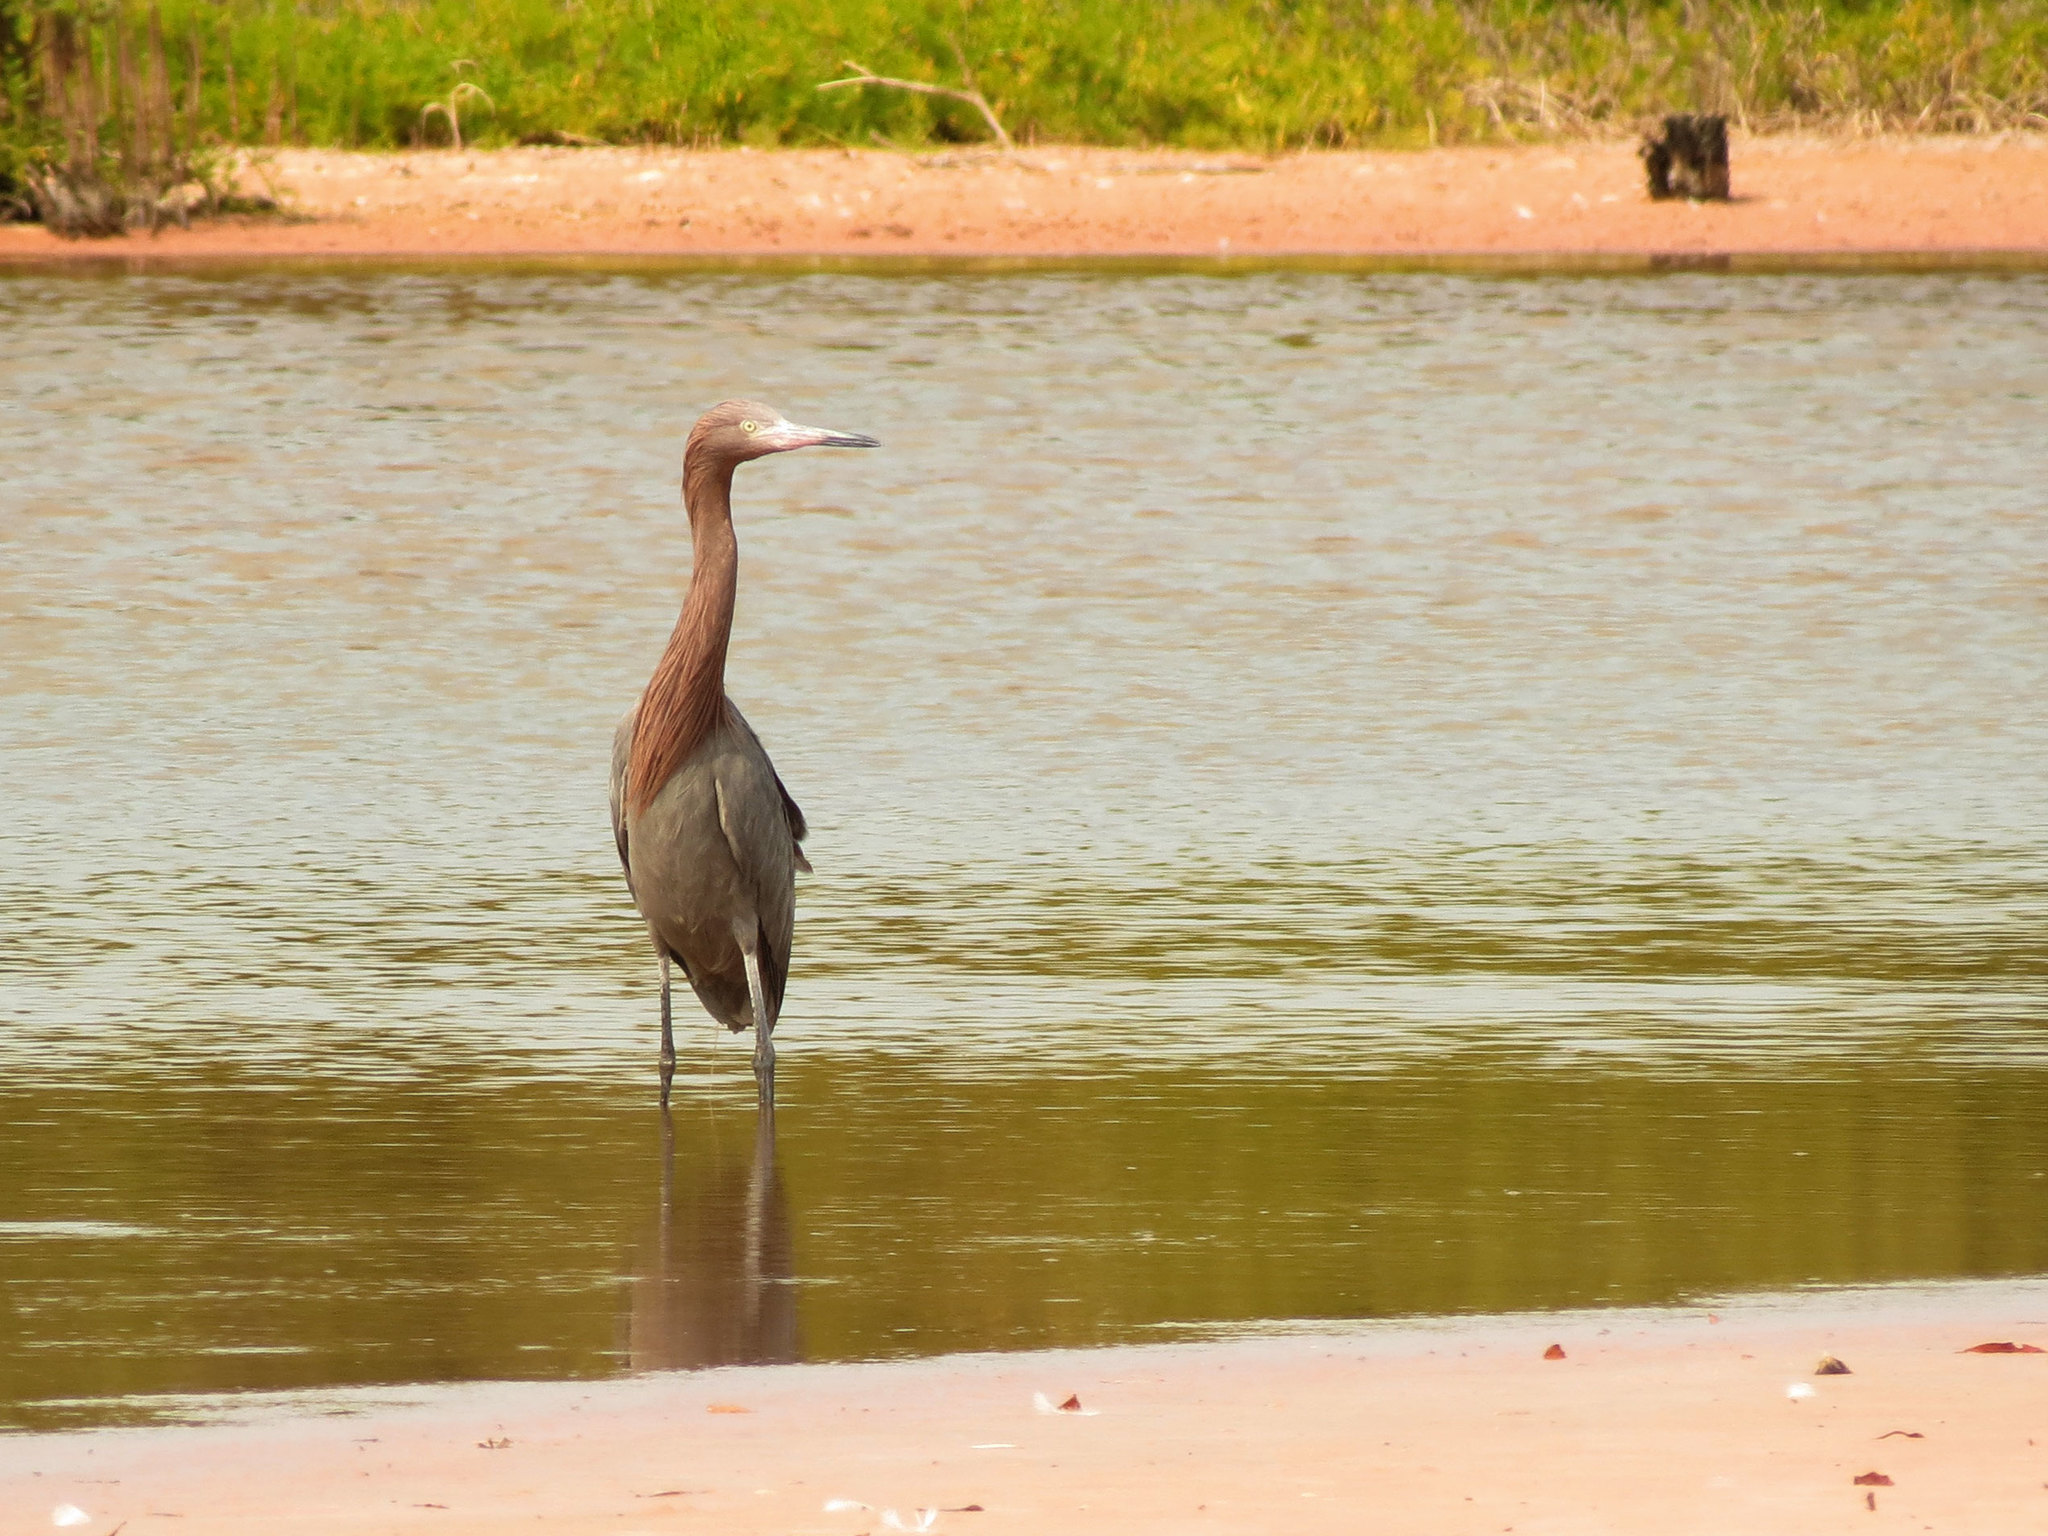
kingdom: Animalia
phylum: Chordata
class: Aves
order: Pelecaniformes
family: Ardeidae
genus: Egretta
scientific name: Egretta rufescens
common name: Reddish egret
